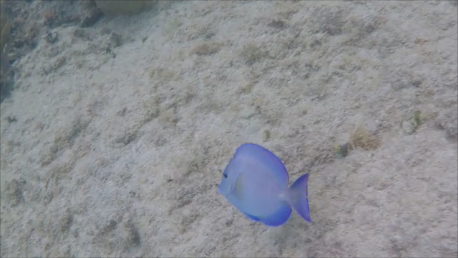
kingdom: Animalia
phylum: Chordata
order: Perciformes
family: Acanthuridae
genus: Acanthurus
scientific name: Acanthurus coeruleus
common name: Blue tang
